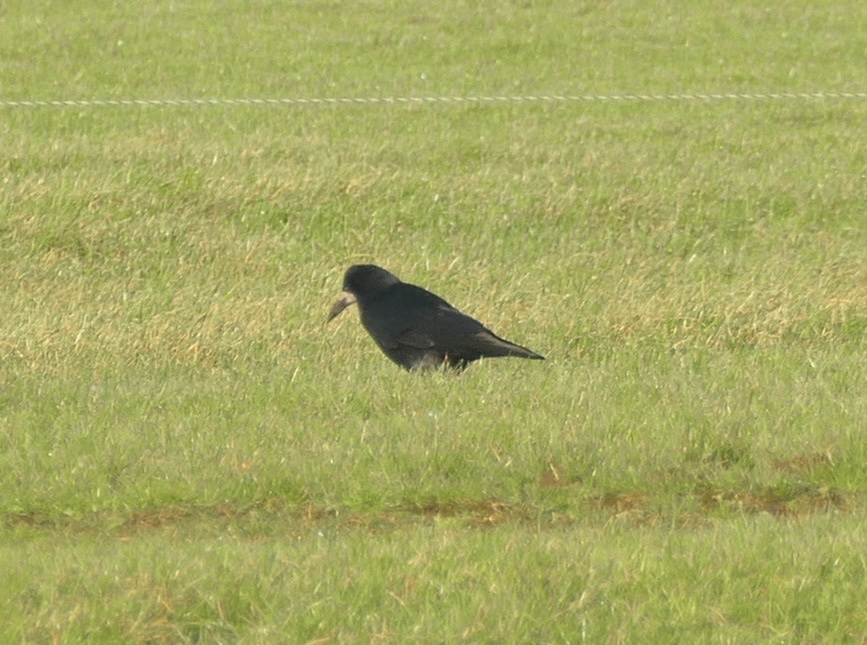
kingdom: Animalia
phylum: Chordata
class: Aves
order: Passeriformes
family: Corvidae
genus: Corvus
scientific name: Corvus frugilegus
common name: Rook
